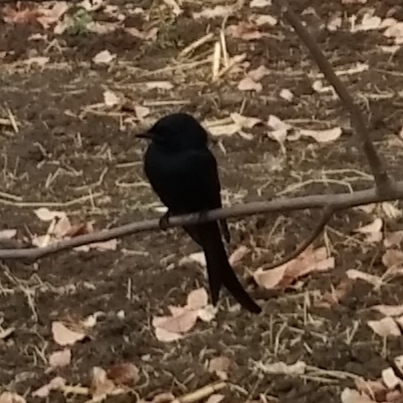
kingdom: Animalia
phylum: Chordata
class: Aves
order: Passeriformes
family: Dicruridae
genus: Dicrurus
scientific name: Dicrurus macrocercus
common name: Black drongo
